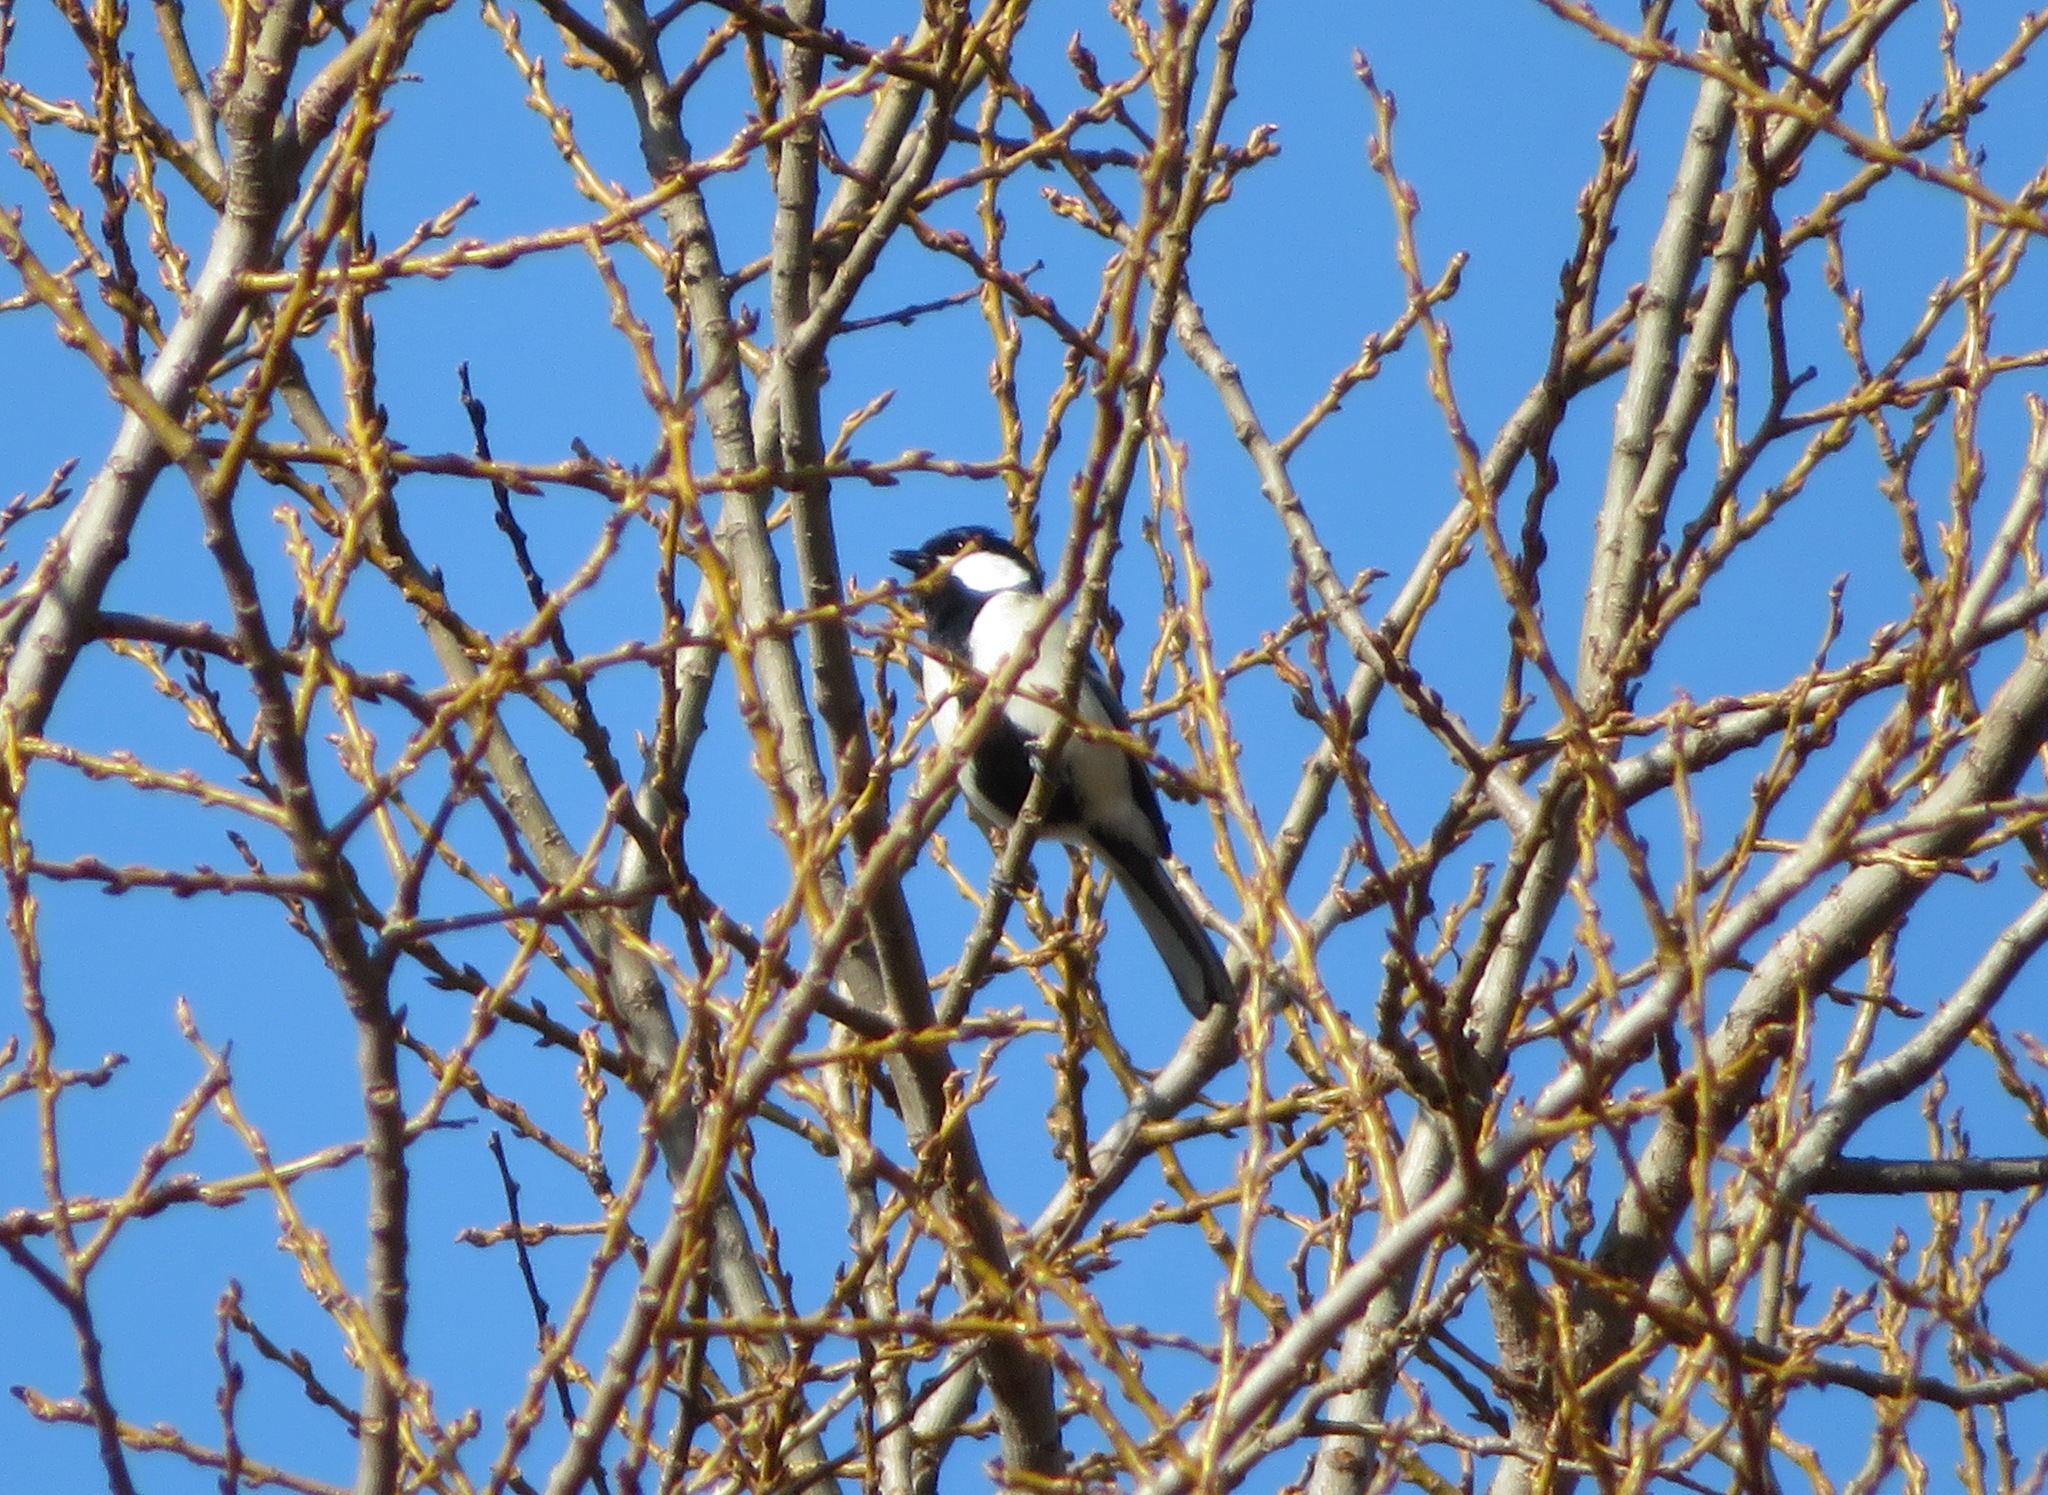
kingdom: Animalia
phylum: Chordata
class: Aves
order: Passeriformes
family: Paridae
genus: Parus
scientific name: Parus minor
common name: Japanese tit
